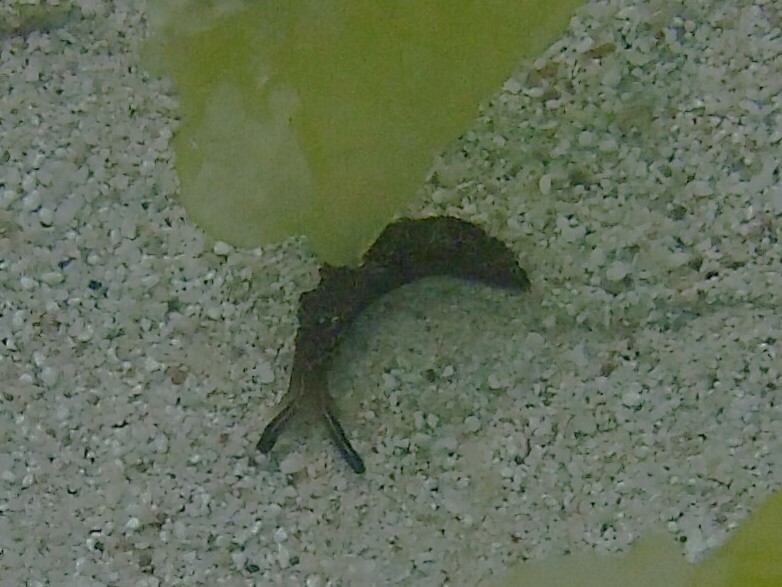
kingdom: Animalia
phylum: Mollusca
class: Gastropoda
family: Plakobranchidae
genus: Elysia
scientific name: Elysia diomedea
